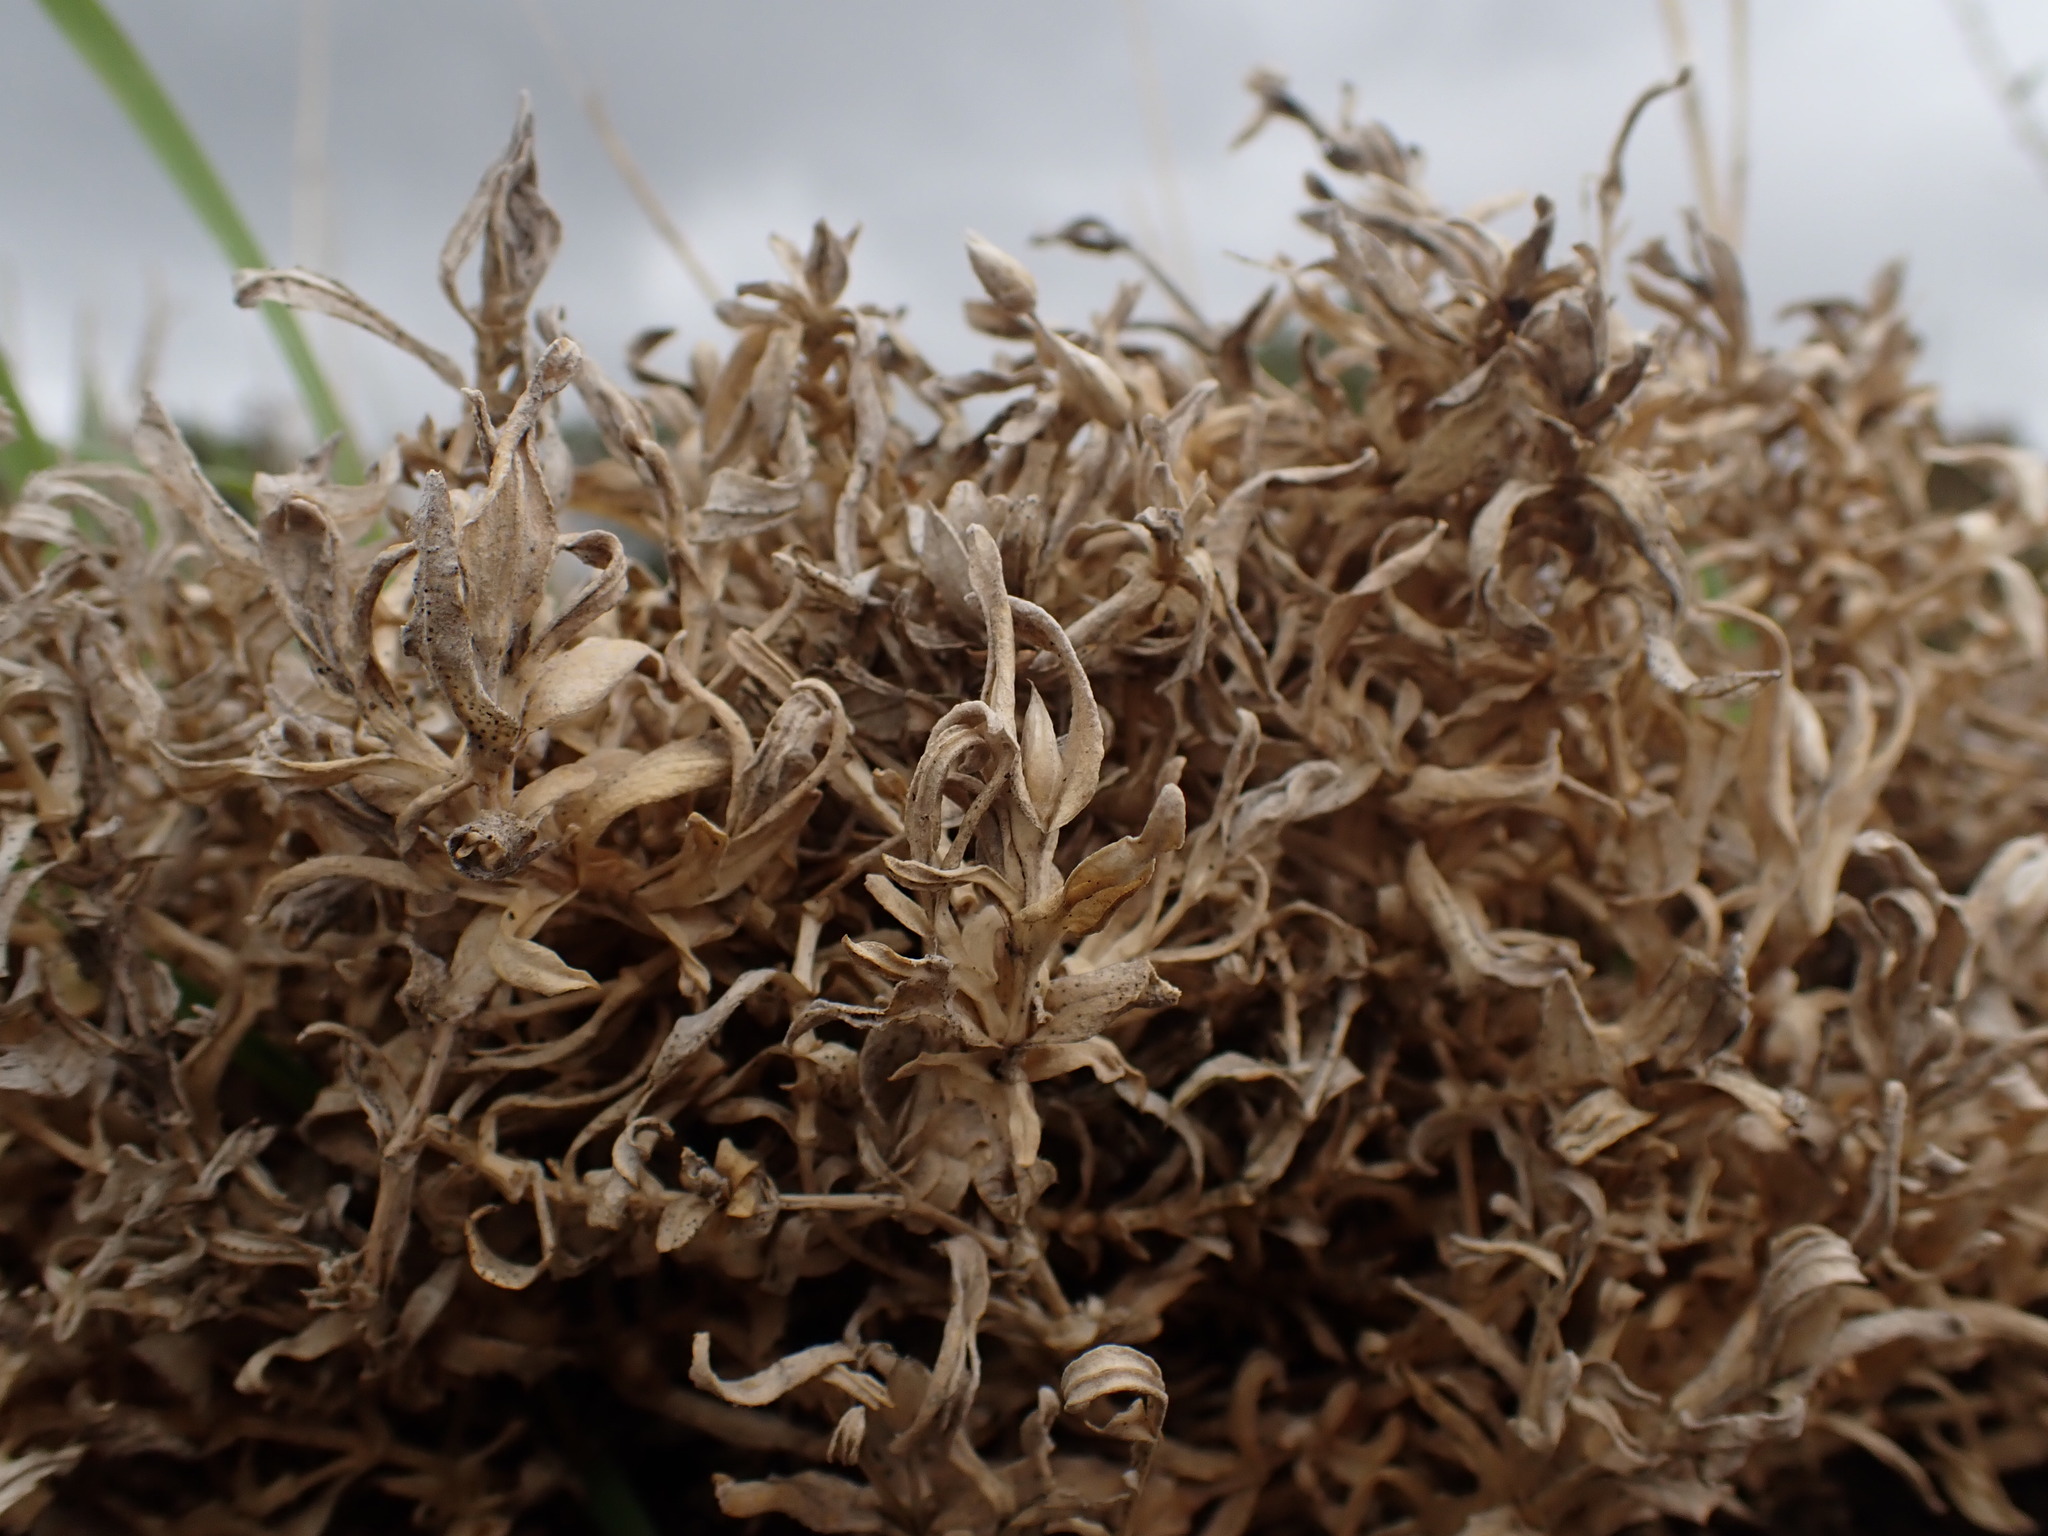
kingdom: Plantae
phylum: Tracheophyta
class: Magnoliopsida
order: Caryophyllales
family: Caryophyllaceae
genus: Cerastium
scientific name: Cerastium tomentosum
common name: Snow-in-summer
